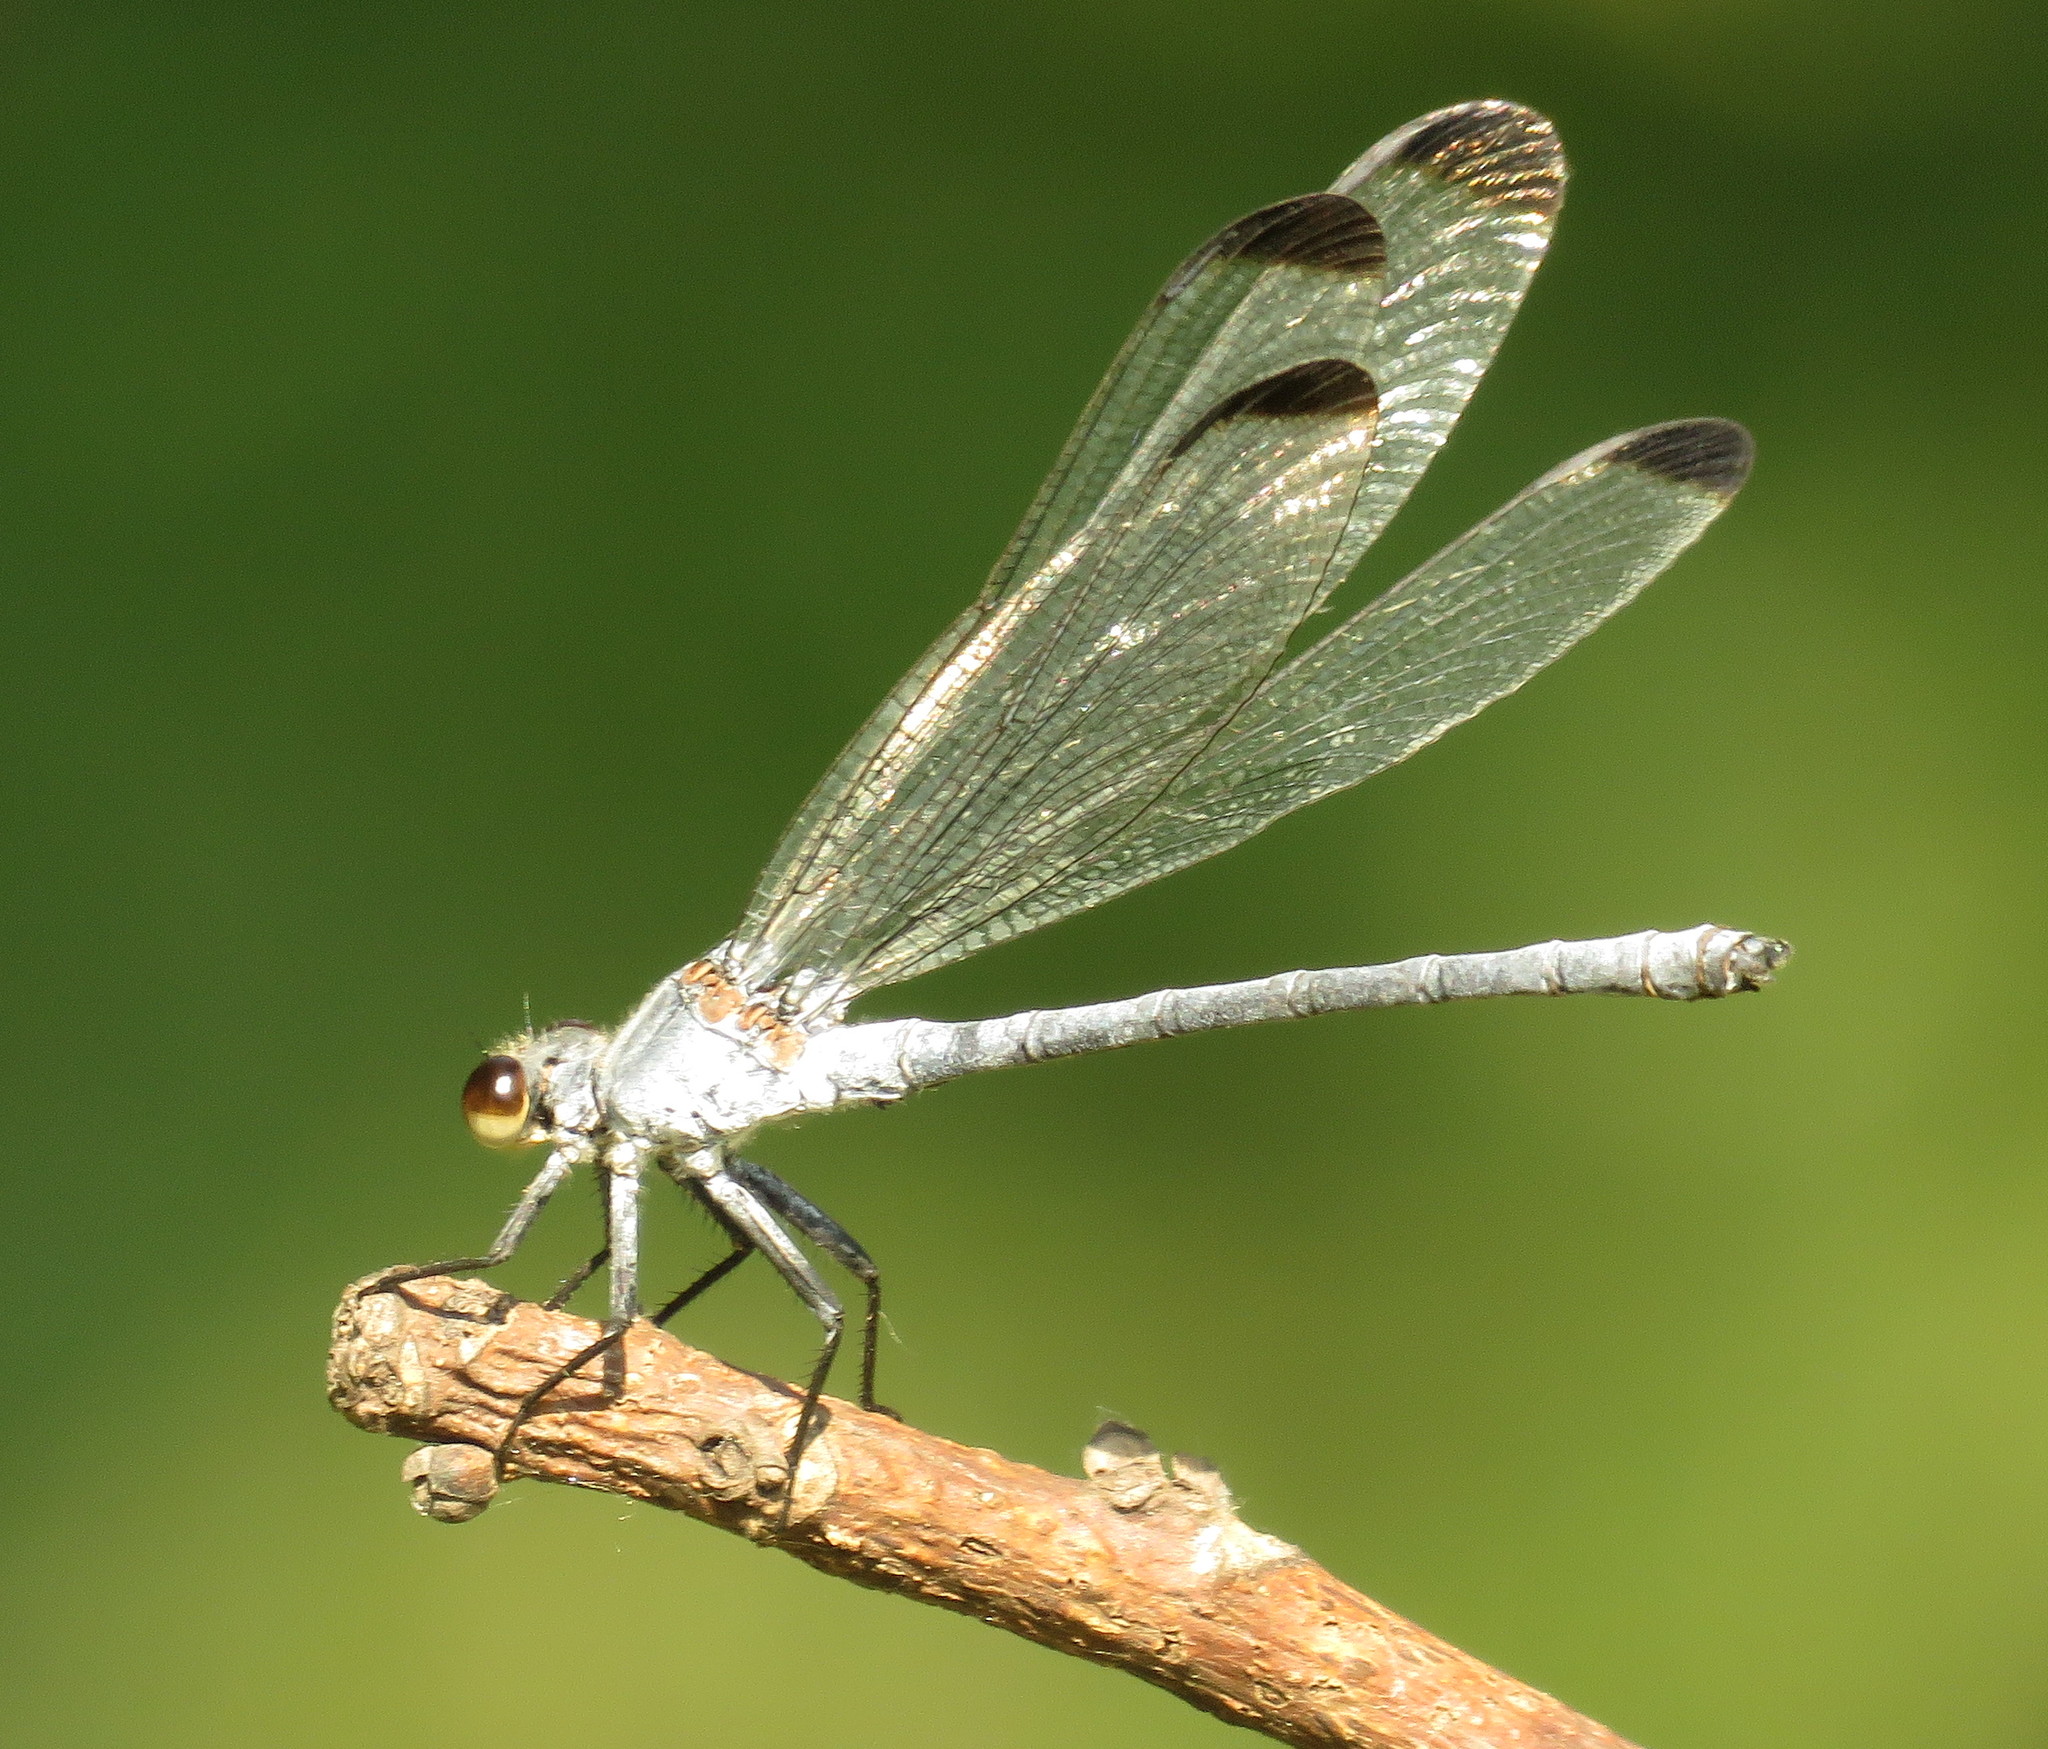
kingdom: Animalia
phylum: Arthropoda
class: Insecta
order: Odonata
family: Euphaeidae
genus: Epallage
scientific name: Epallage fatime
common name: Odalisque
